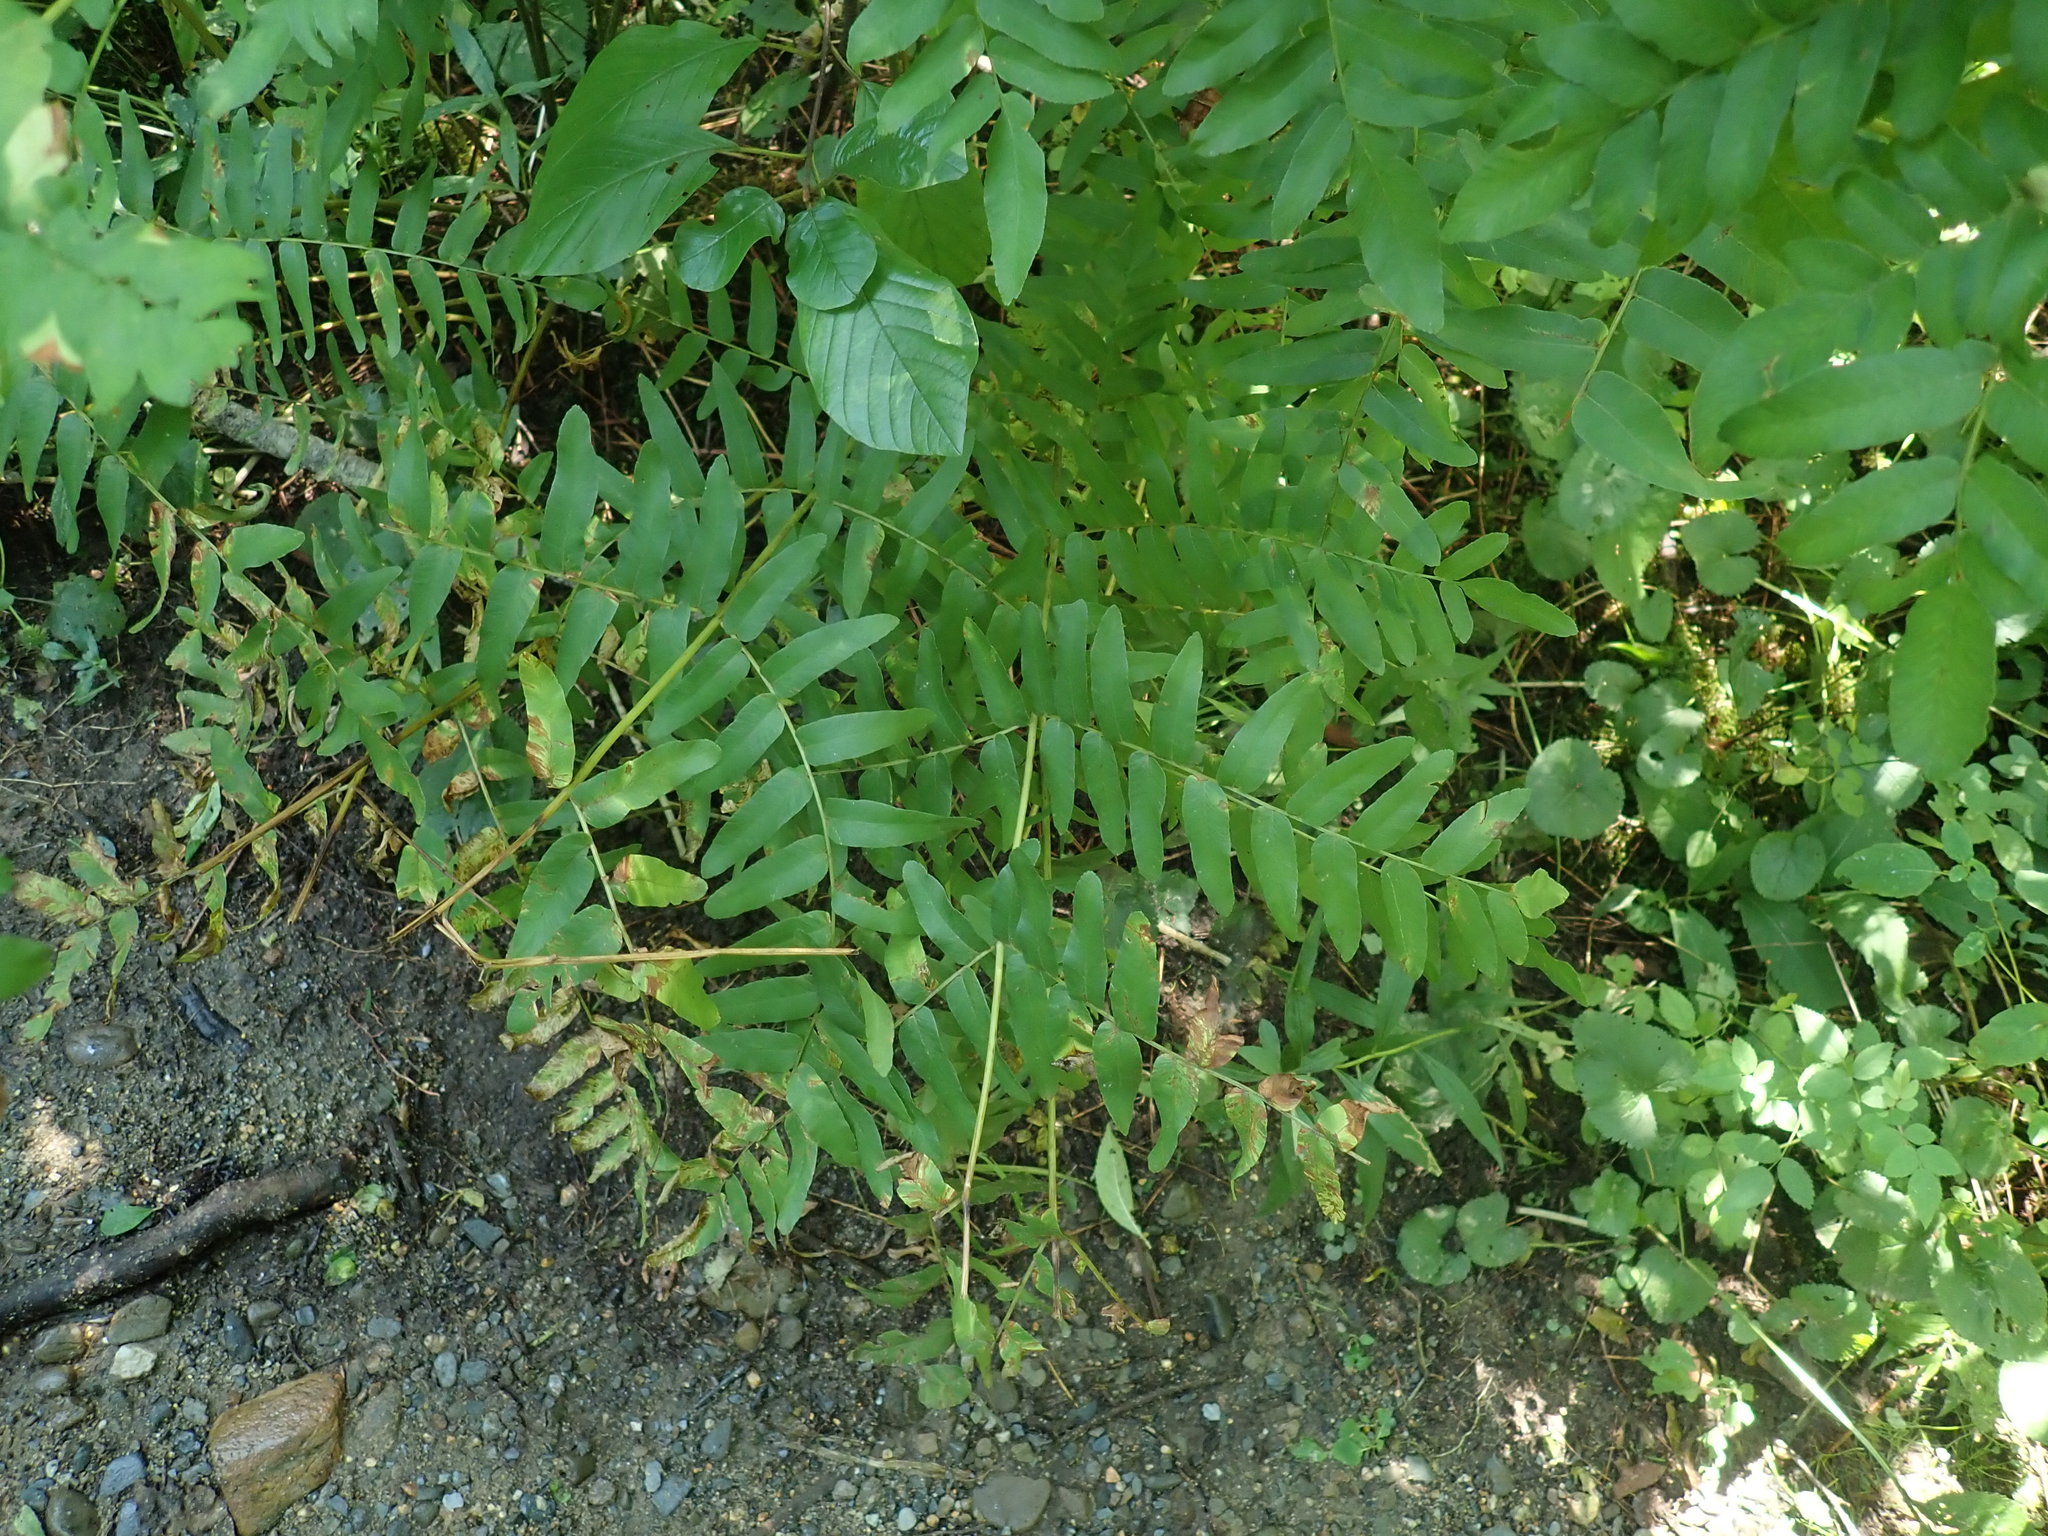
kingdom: Plantae
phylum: Tracheophyta
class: Polypodiopsida
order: Osmundales
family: Osmundaceae
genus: Osmunda
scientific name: Osmunda spectabilis
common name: American royal fern
